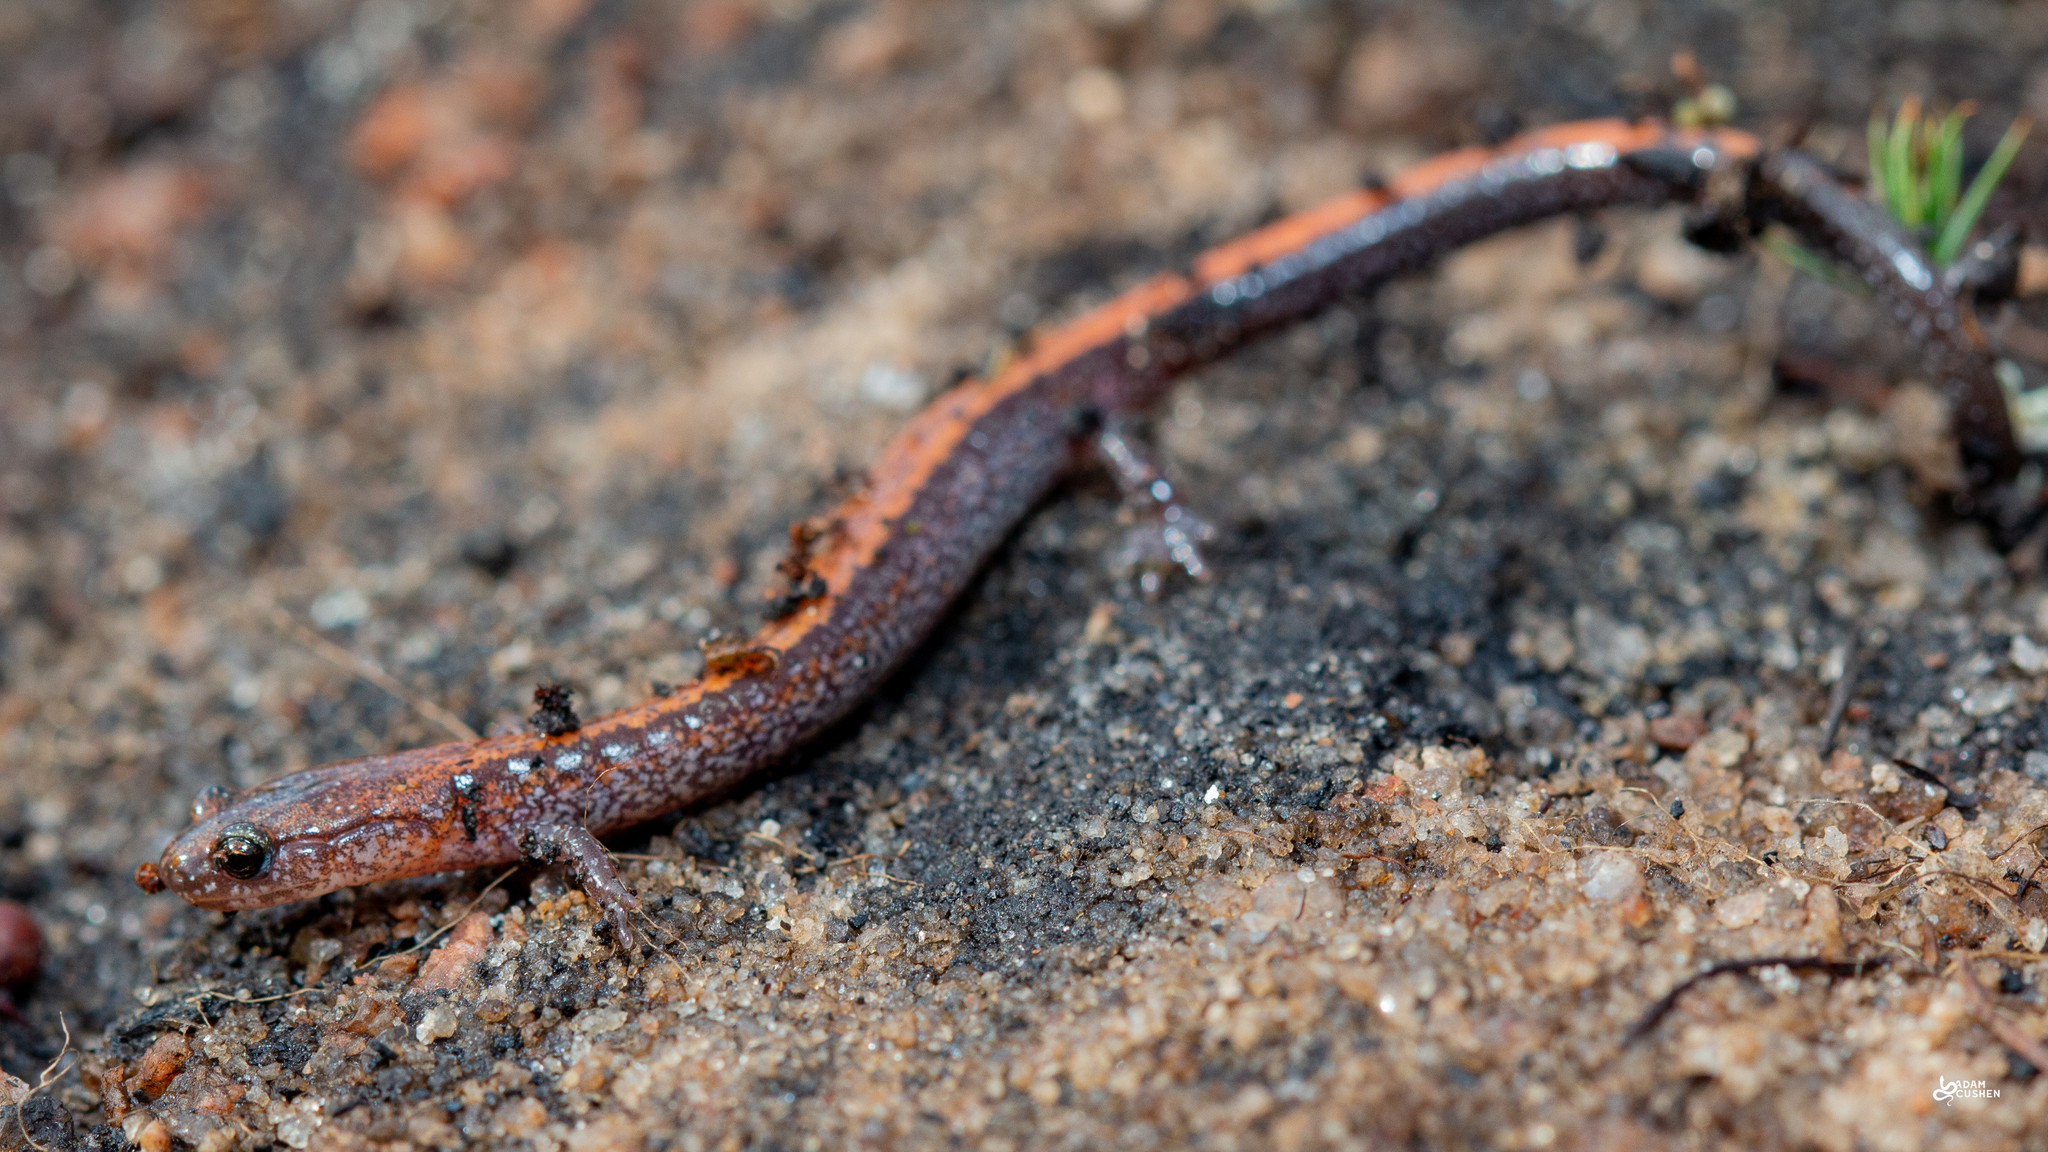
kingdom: Animalia
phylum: Chordata
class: Amphibia
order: Caudata
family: Plethodontidae
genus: Plethodon
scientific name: Plethodon cinereus
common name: Redback salamander
